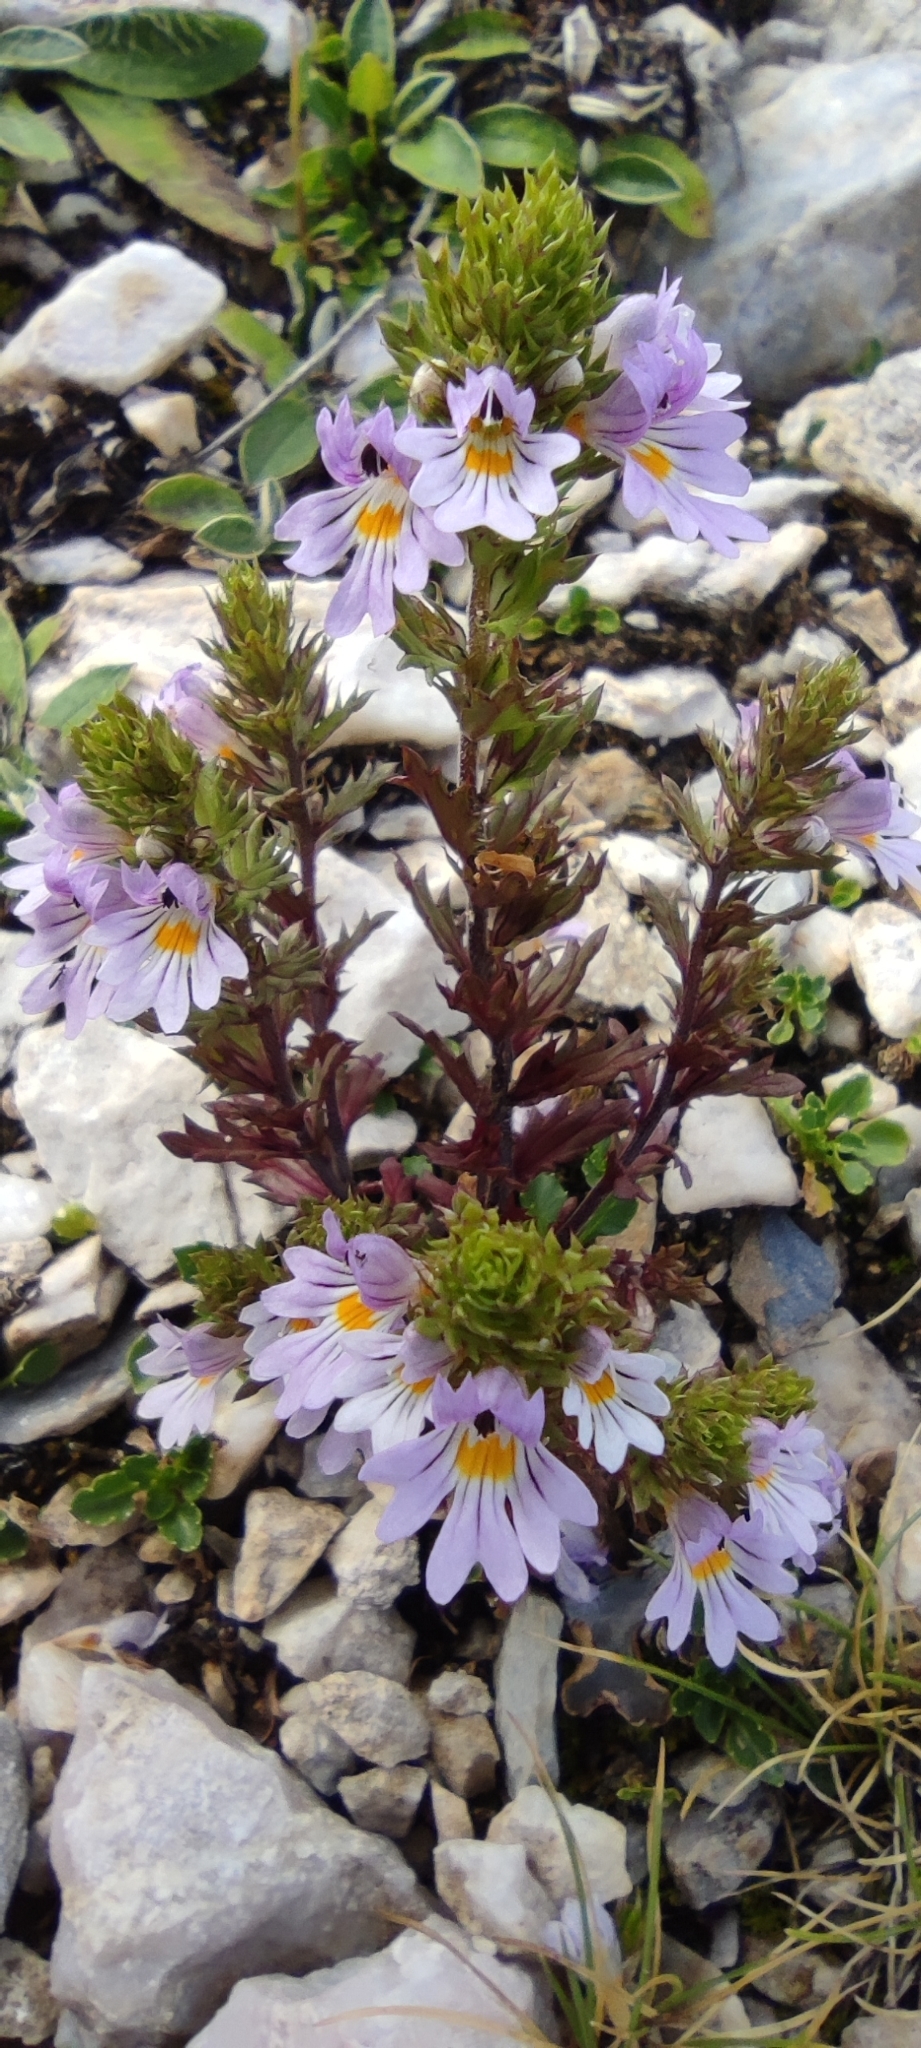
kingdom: Plantae
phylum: Tracheophyta
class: Magnoliopsida
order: Lamiales
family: Orobanchaceae
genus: Euphrasia
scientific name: Euphrasia salisburgensis
